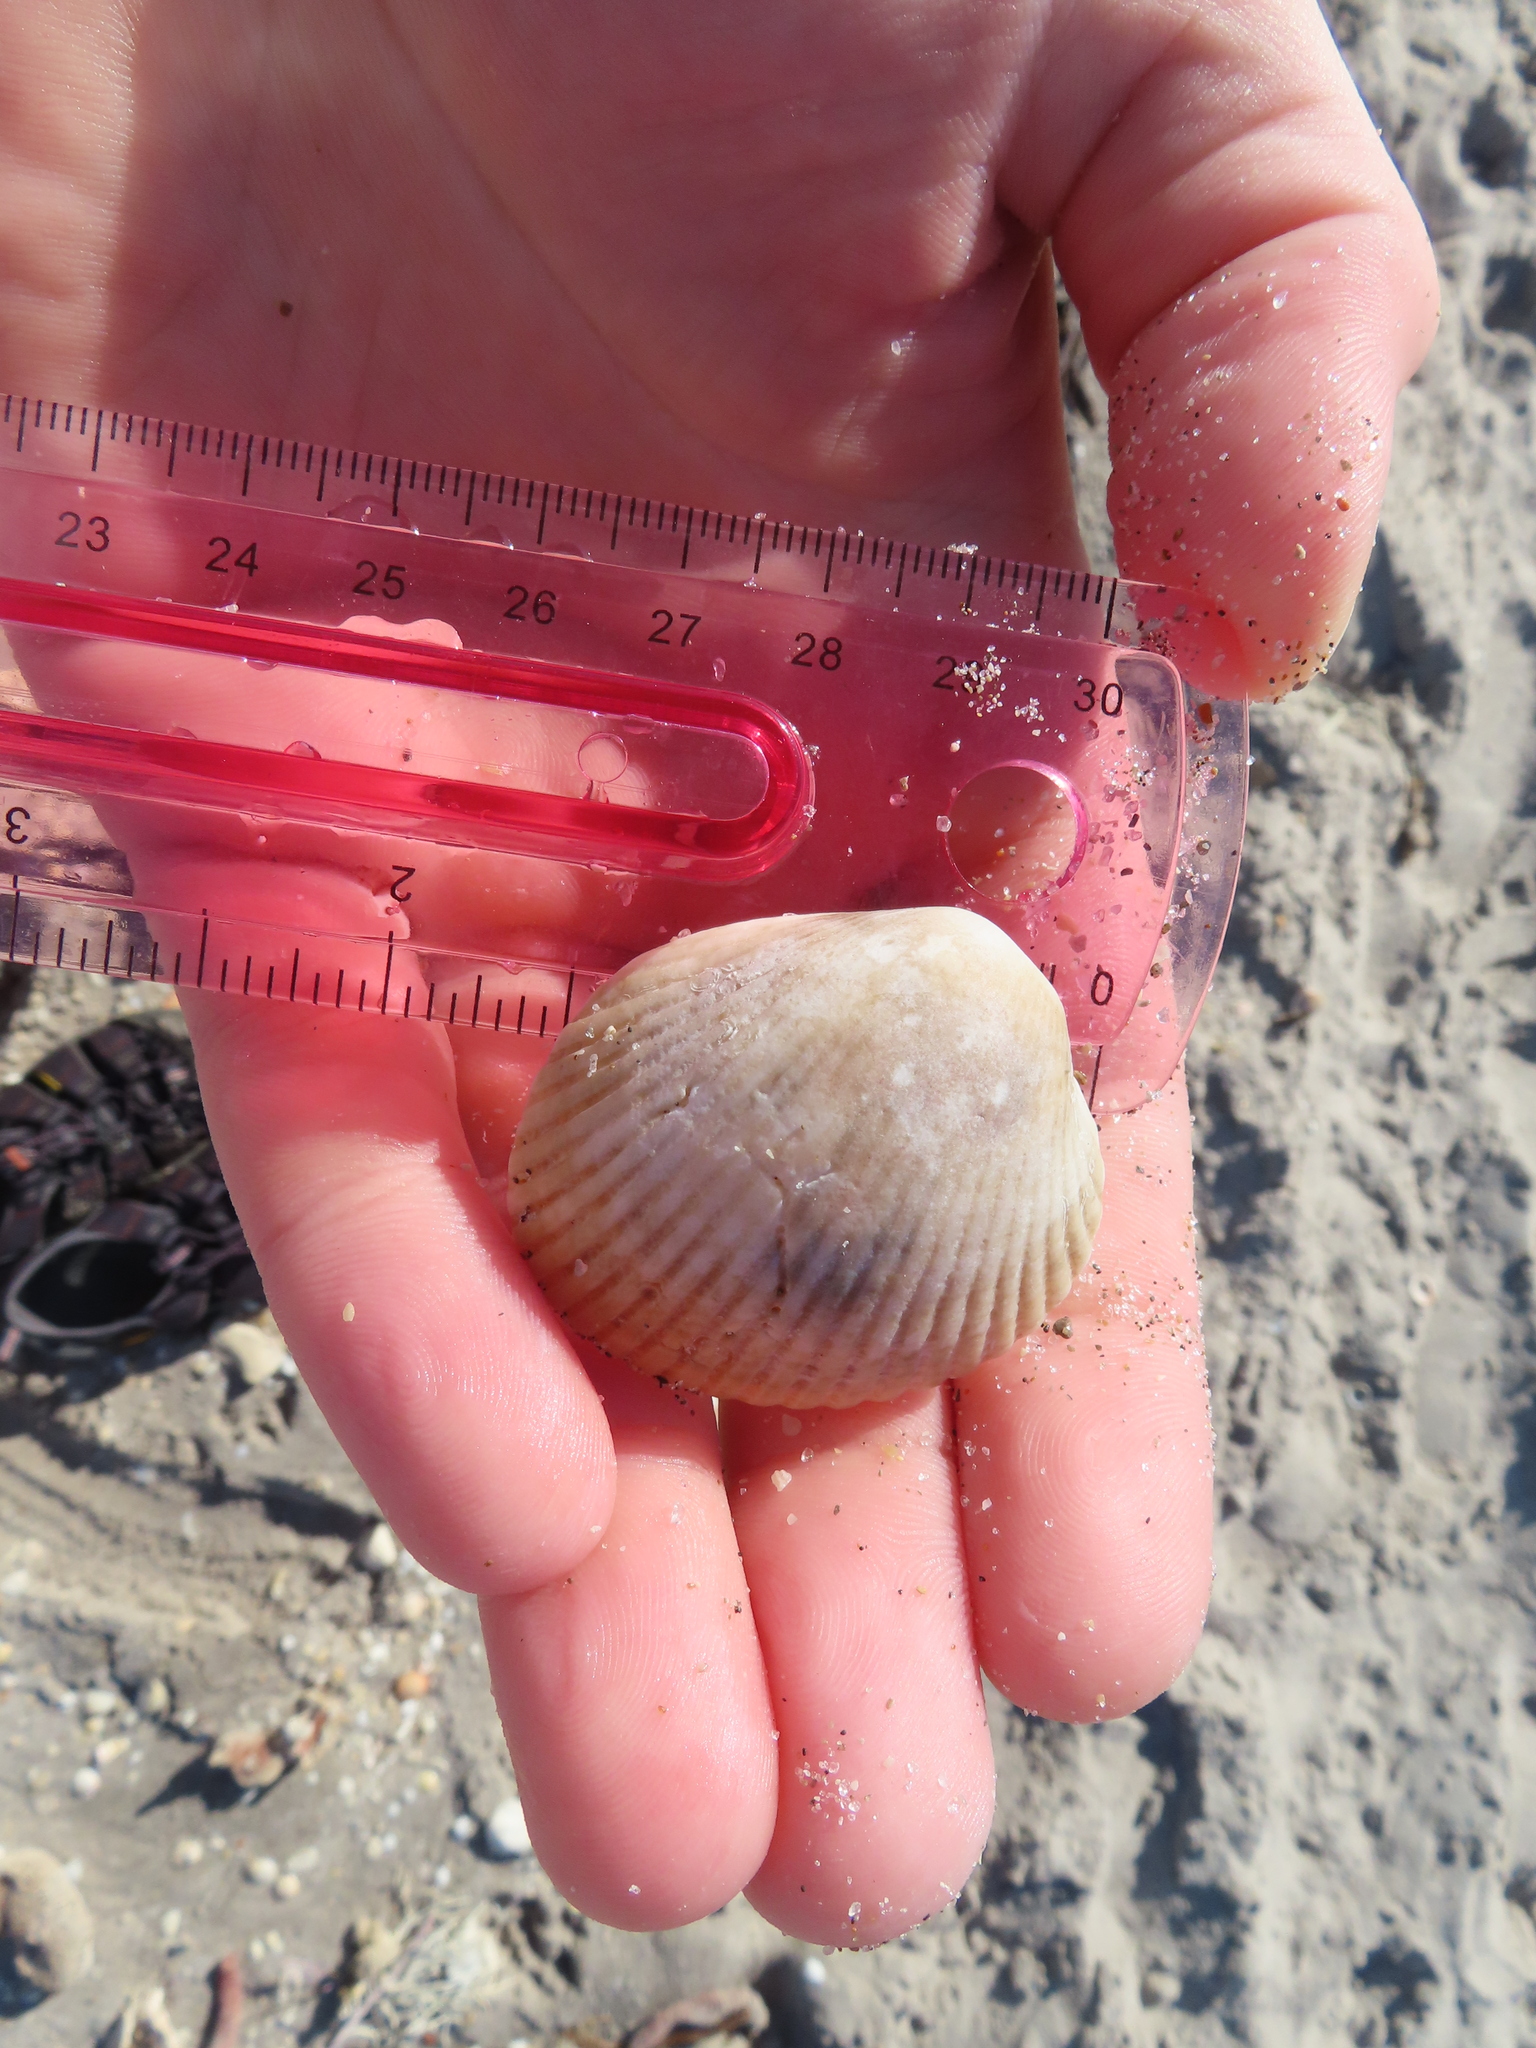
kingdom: Animalia
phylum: Mollusca
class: Bivalvia
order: Arcida
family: Arcidae
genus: Lunarca
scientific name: Lunarca ovalis
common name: Blood ark
